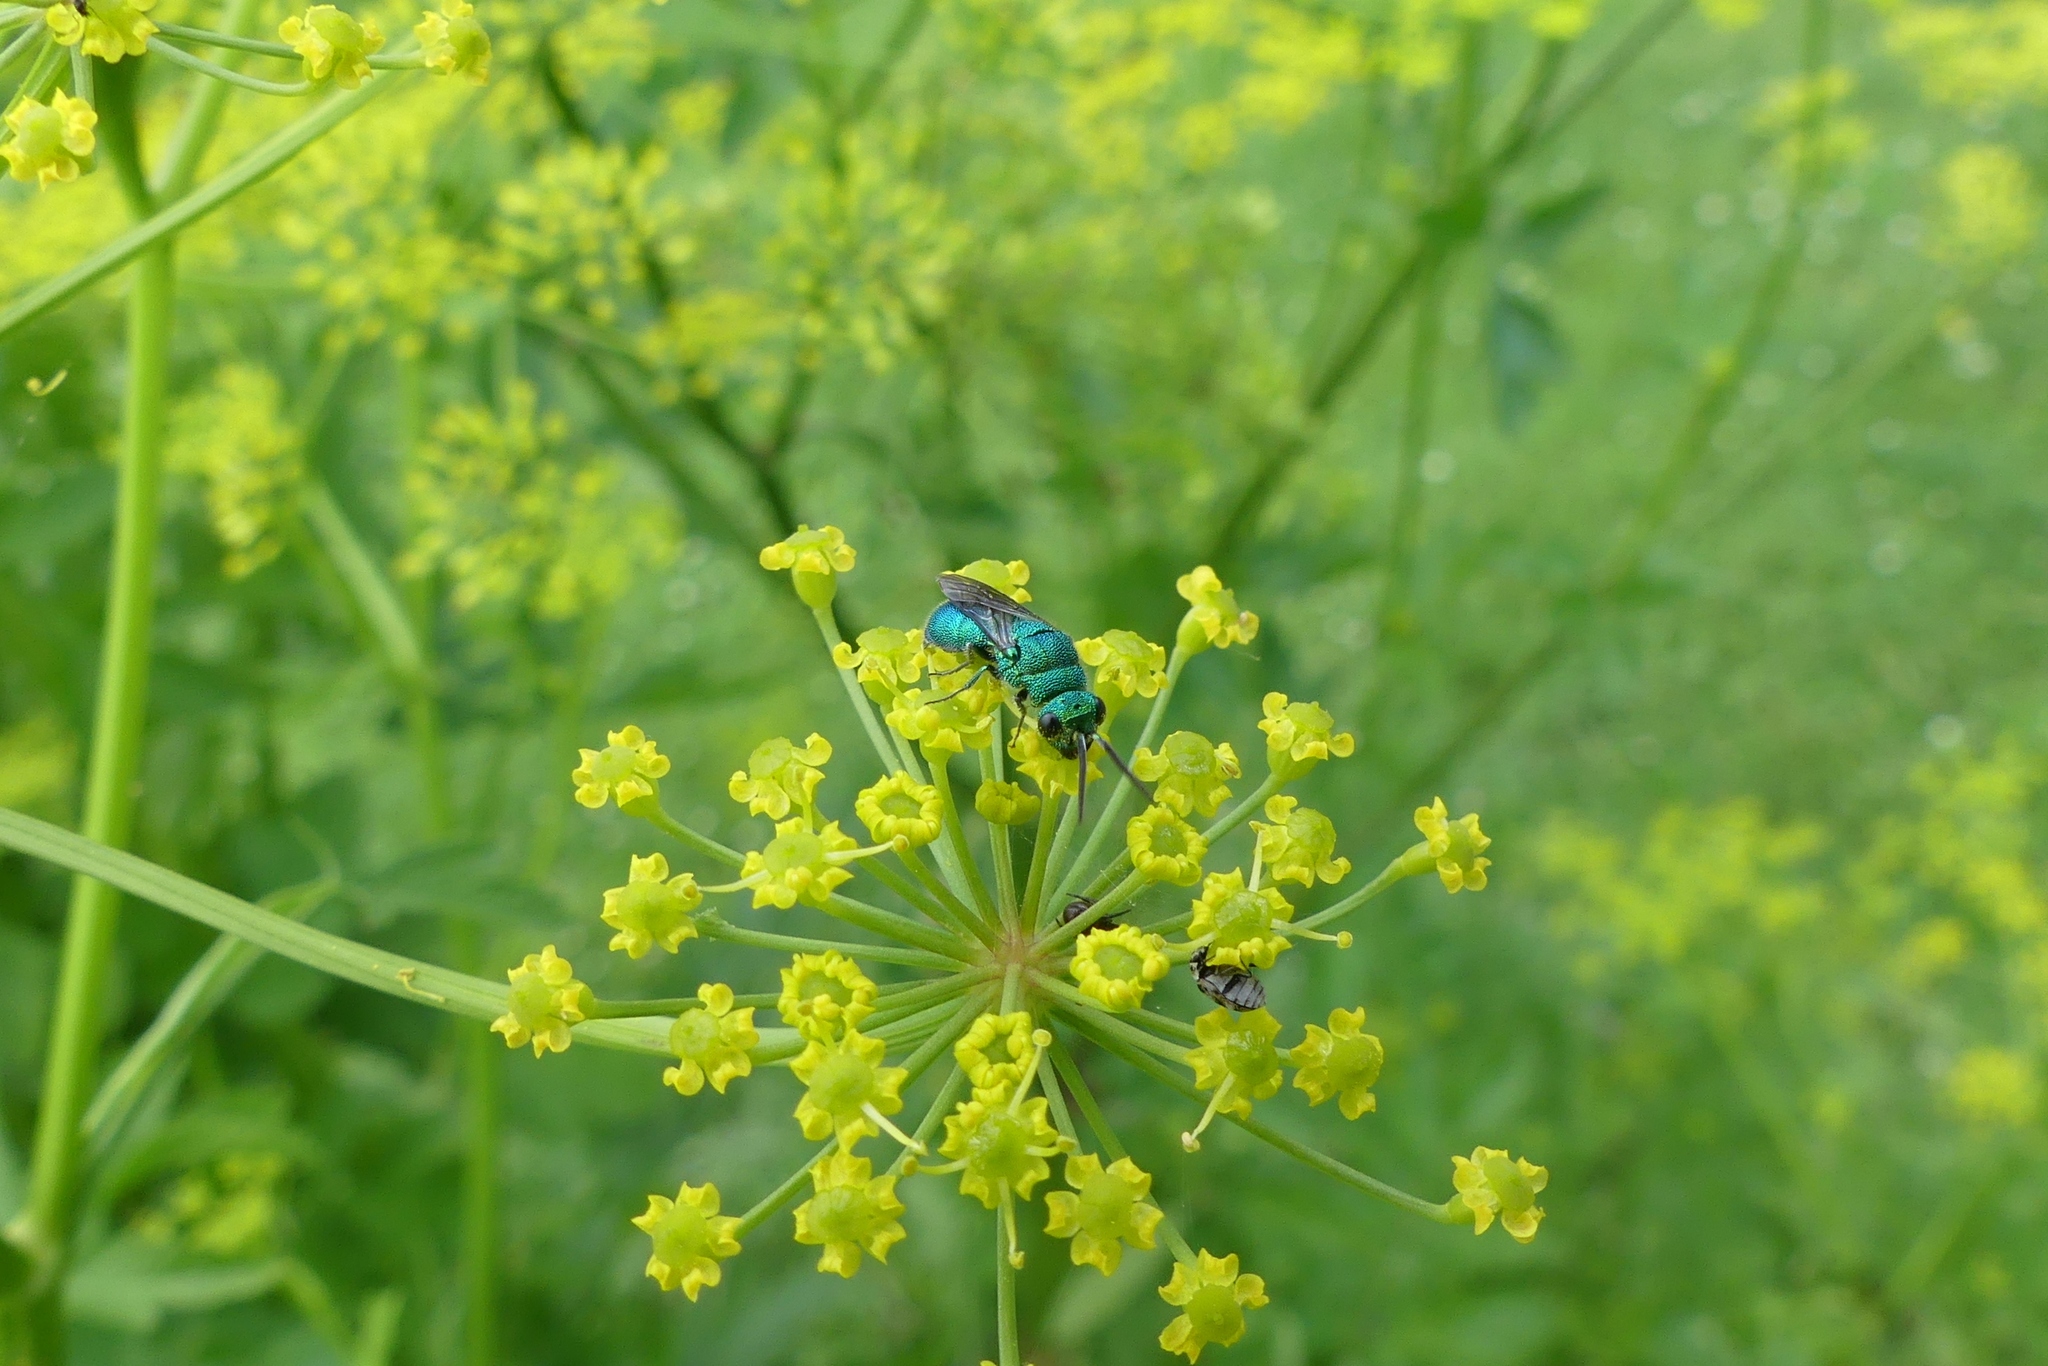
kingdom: Animalia
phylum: Arthropoda
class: Insecta
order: Coleoptera
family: Dermestidae
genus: Anthrenus
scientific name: Anthrenus isabellinus
